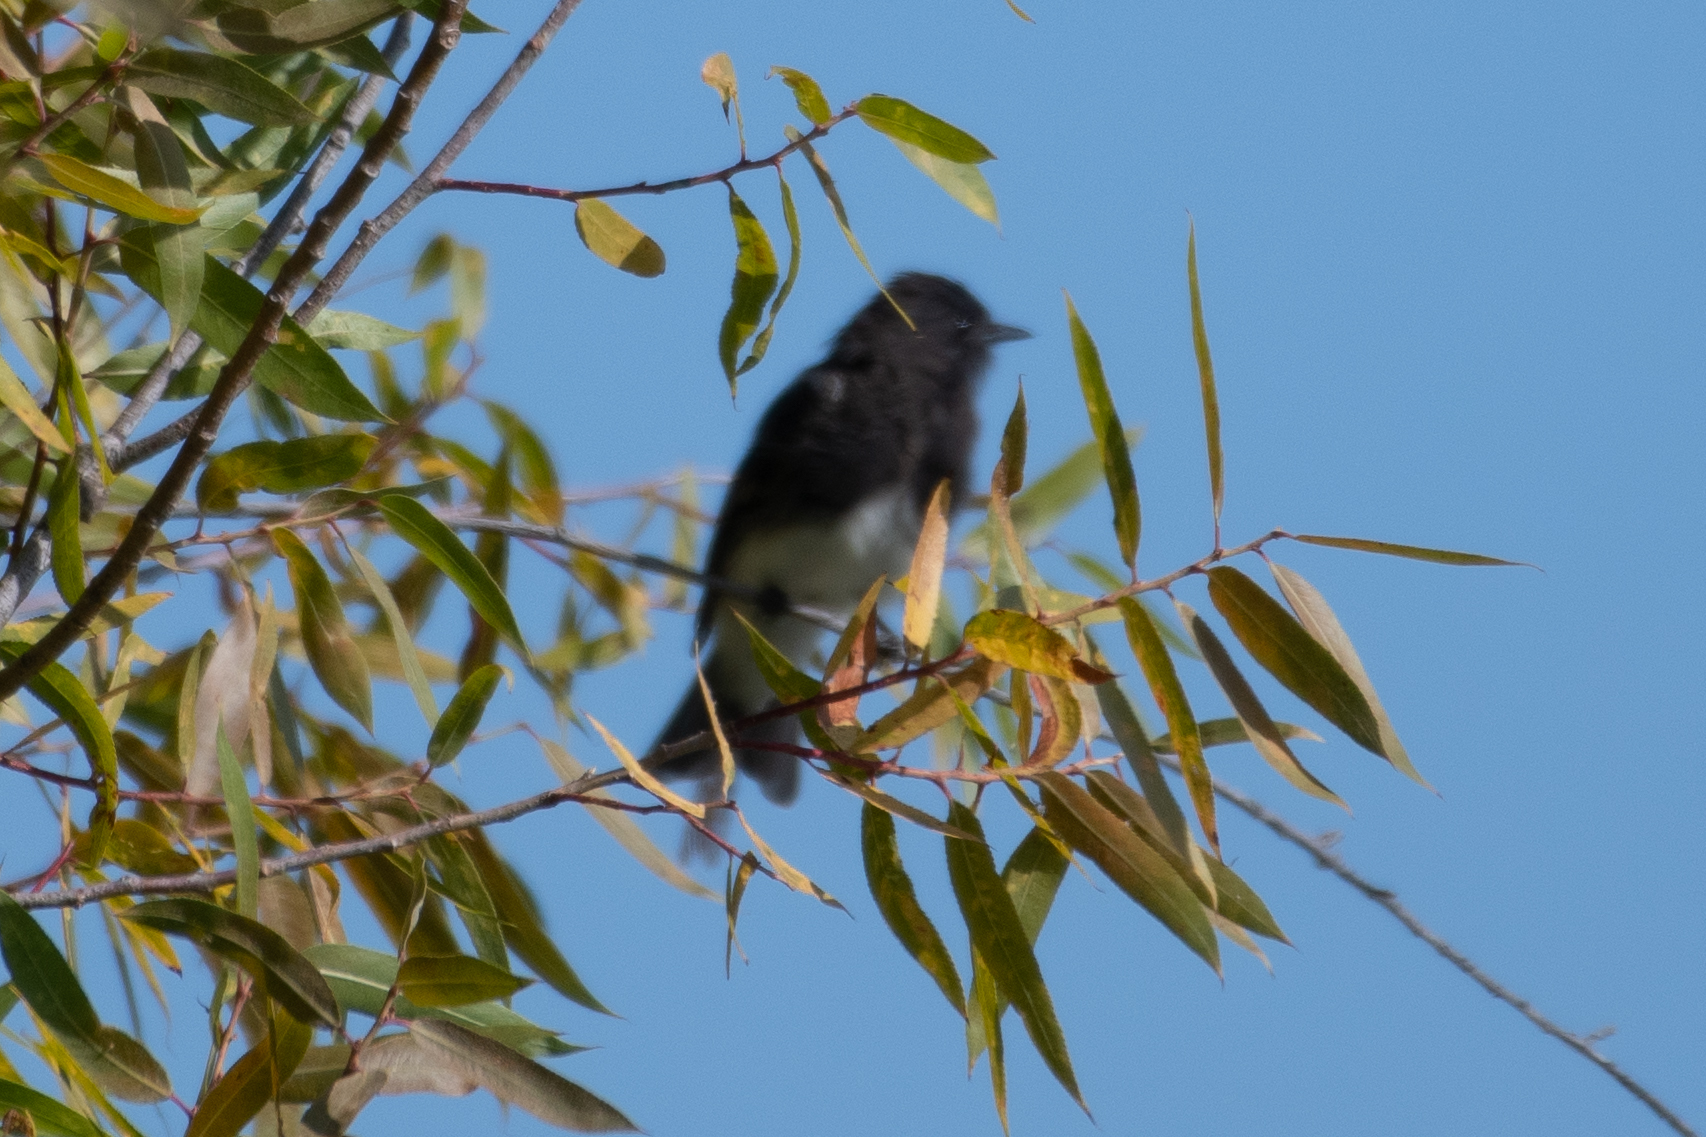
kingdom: Animalia
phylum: Chordata
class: Aves
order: Passeriformes
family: Tyrannidae
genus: Sayornis
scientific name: Sayornis nigricans
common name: Black phoebe
